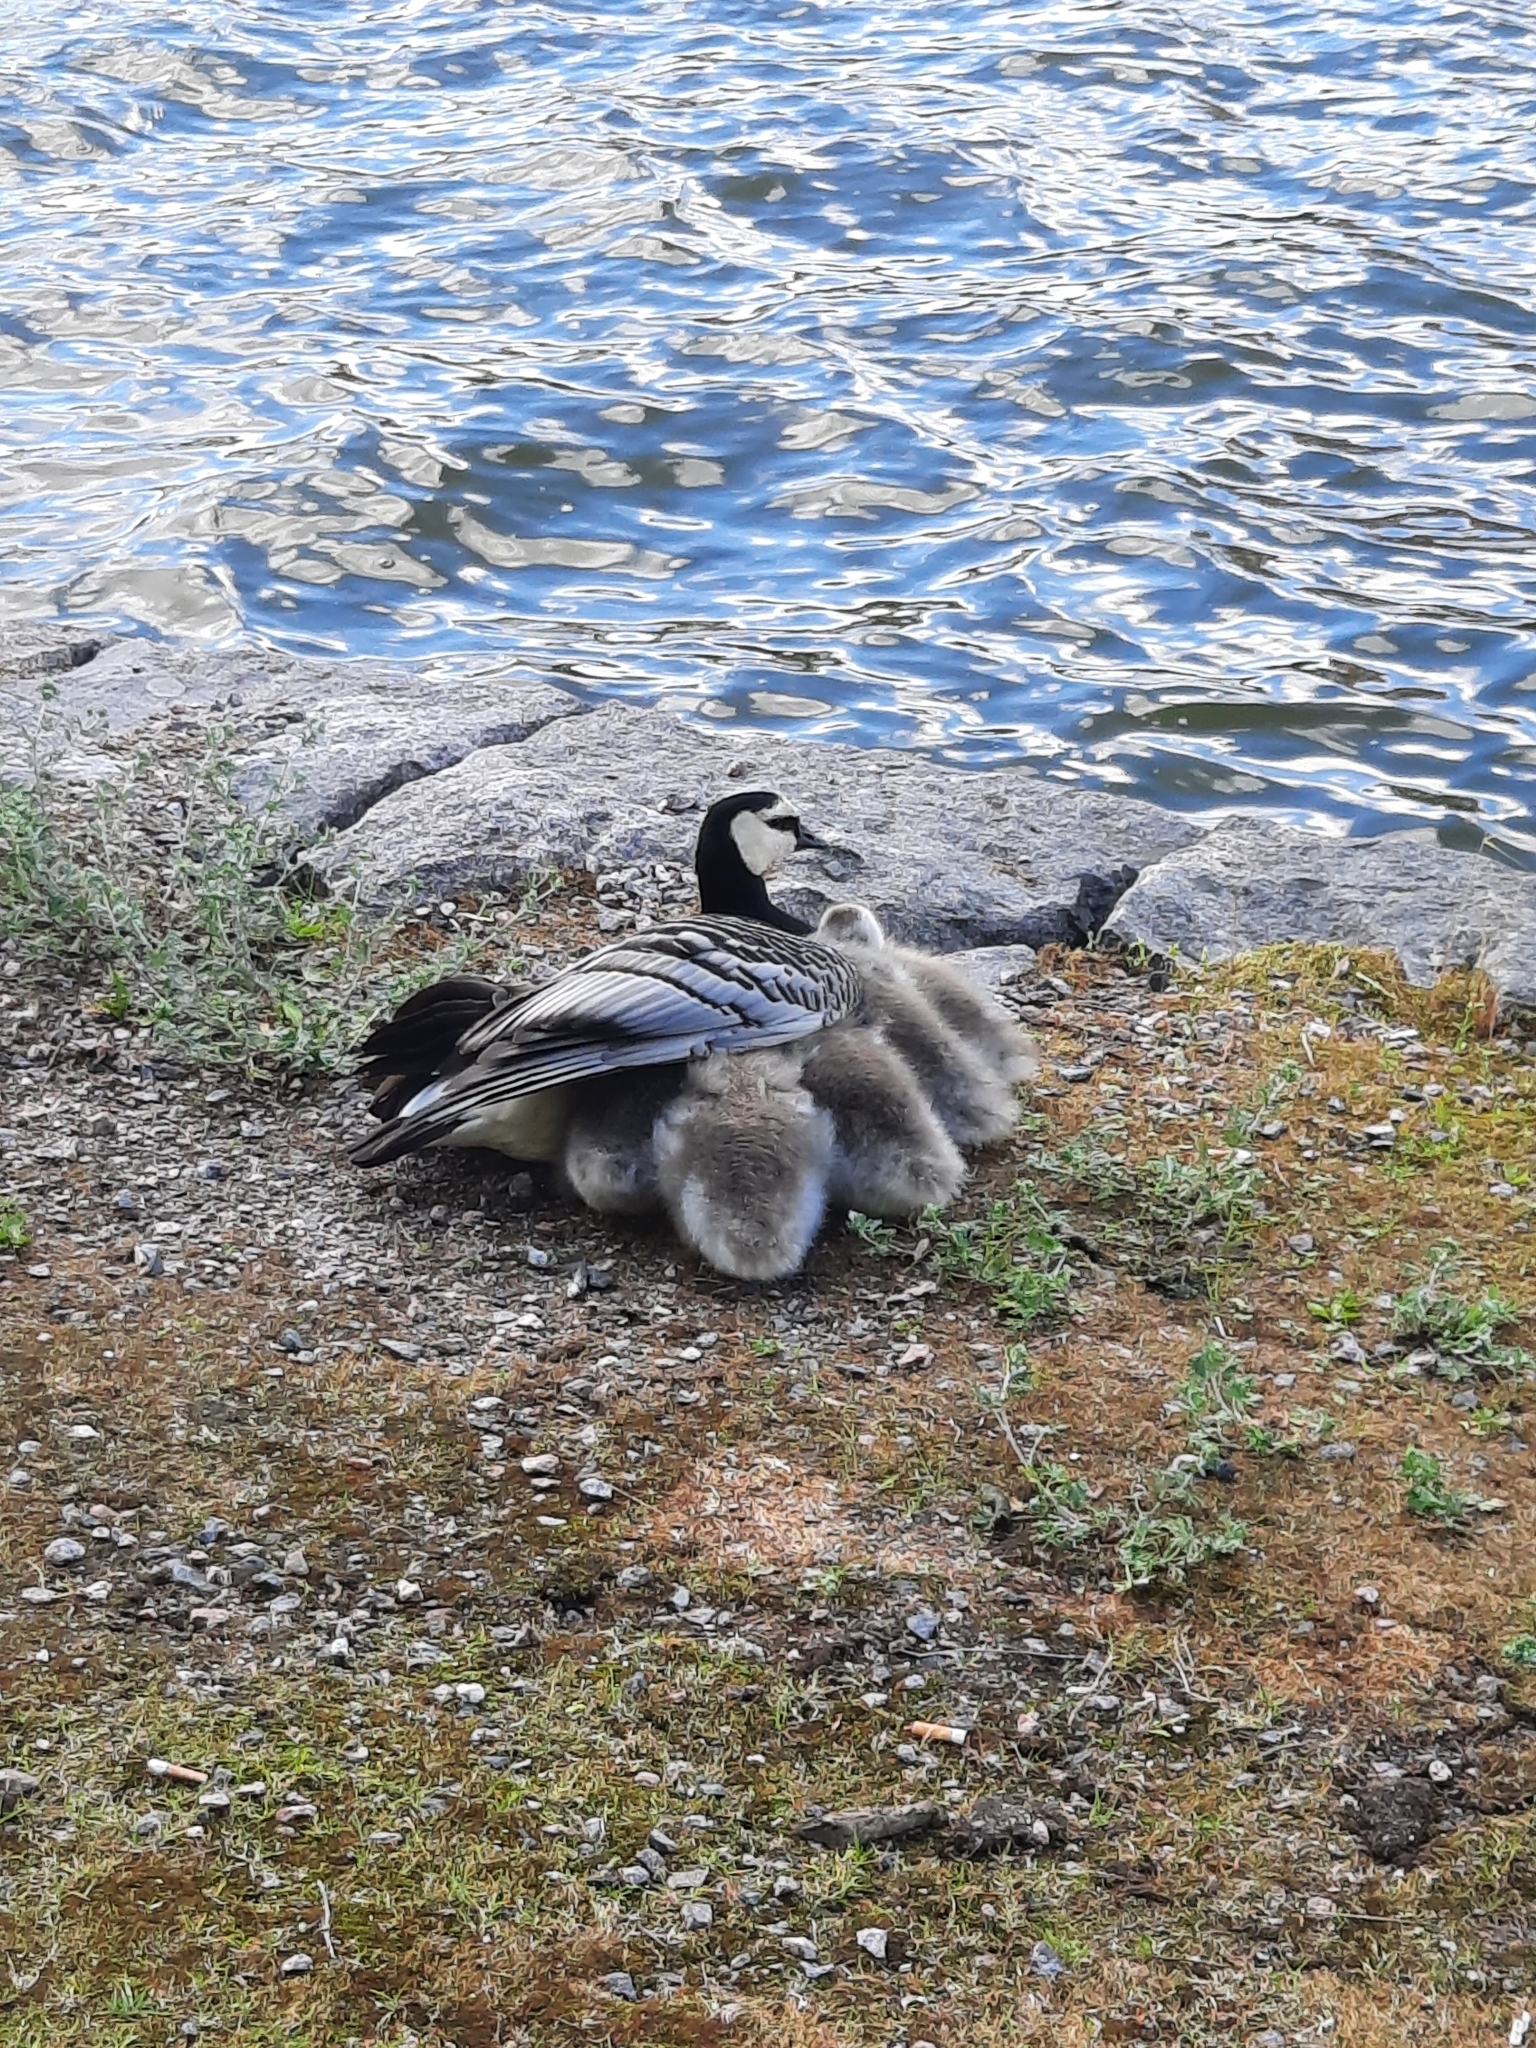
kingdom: Animalia
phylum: Chordata
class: Aves
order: Anseriformes
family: Anatidae
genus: Branta
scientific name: Branta leucopsis
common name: Barnacle goose
